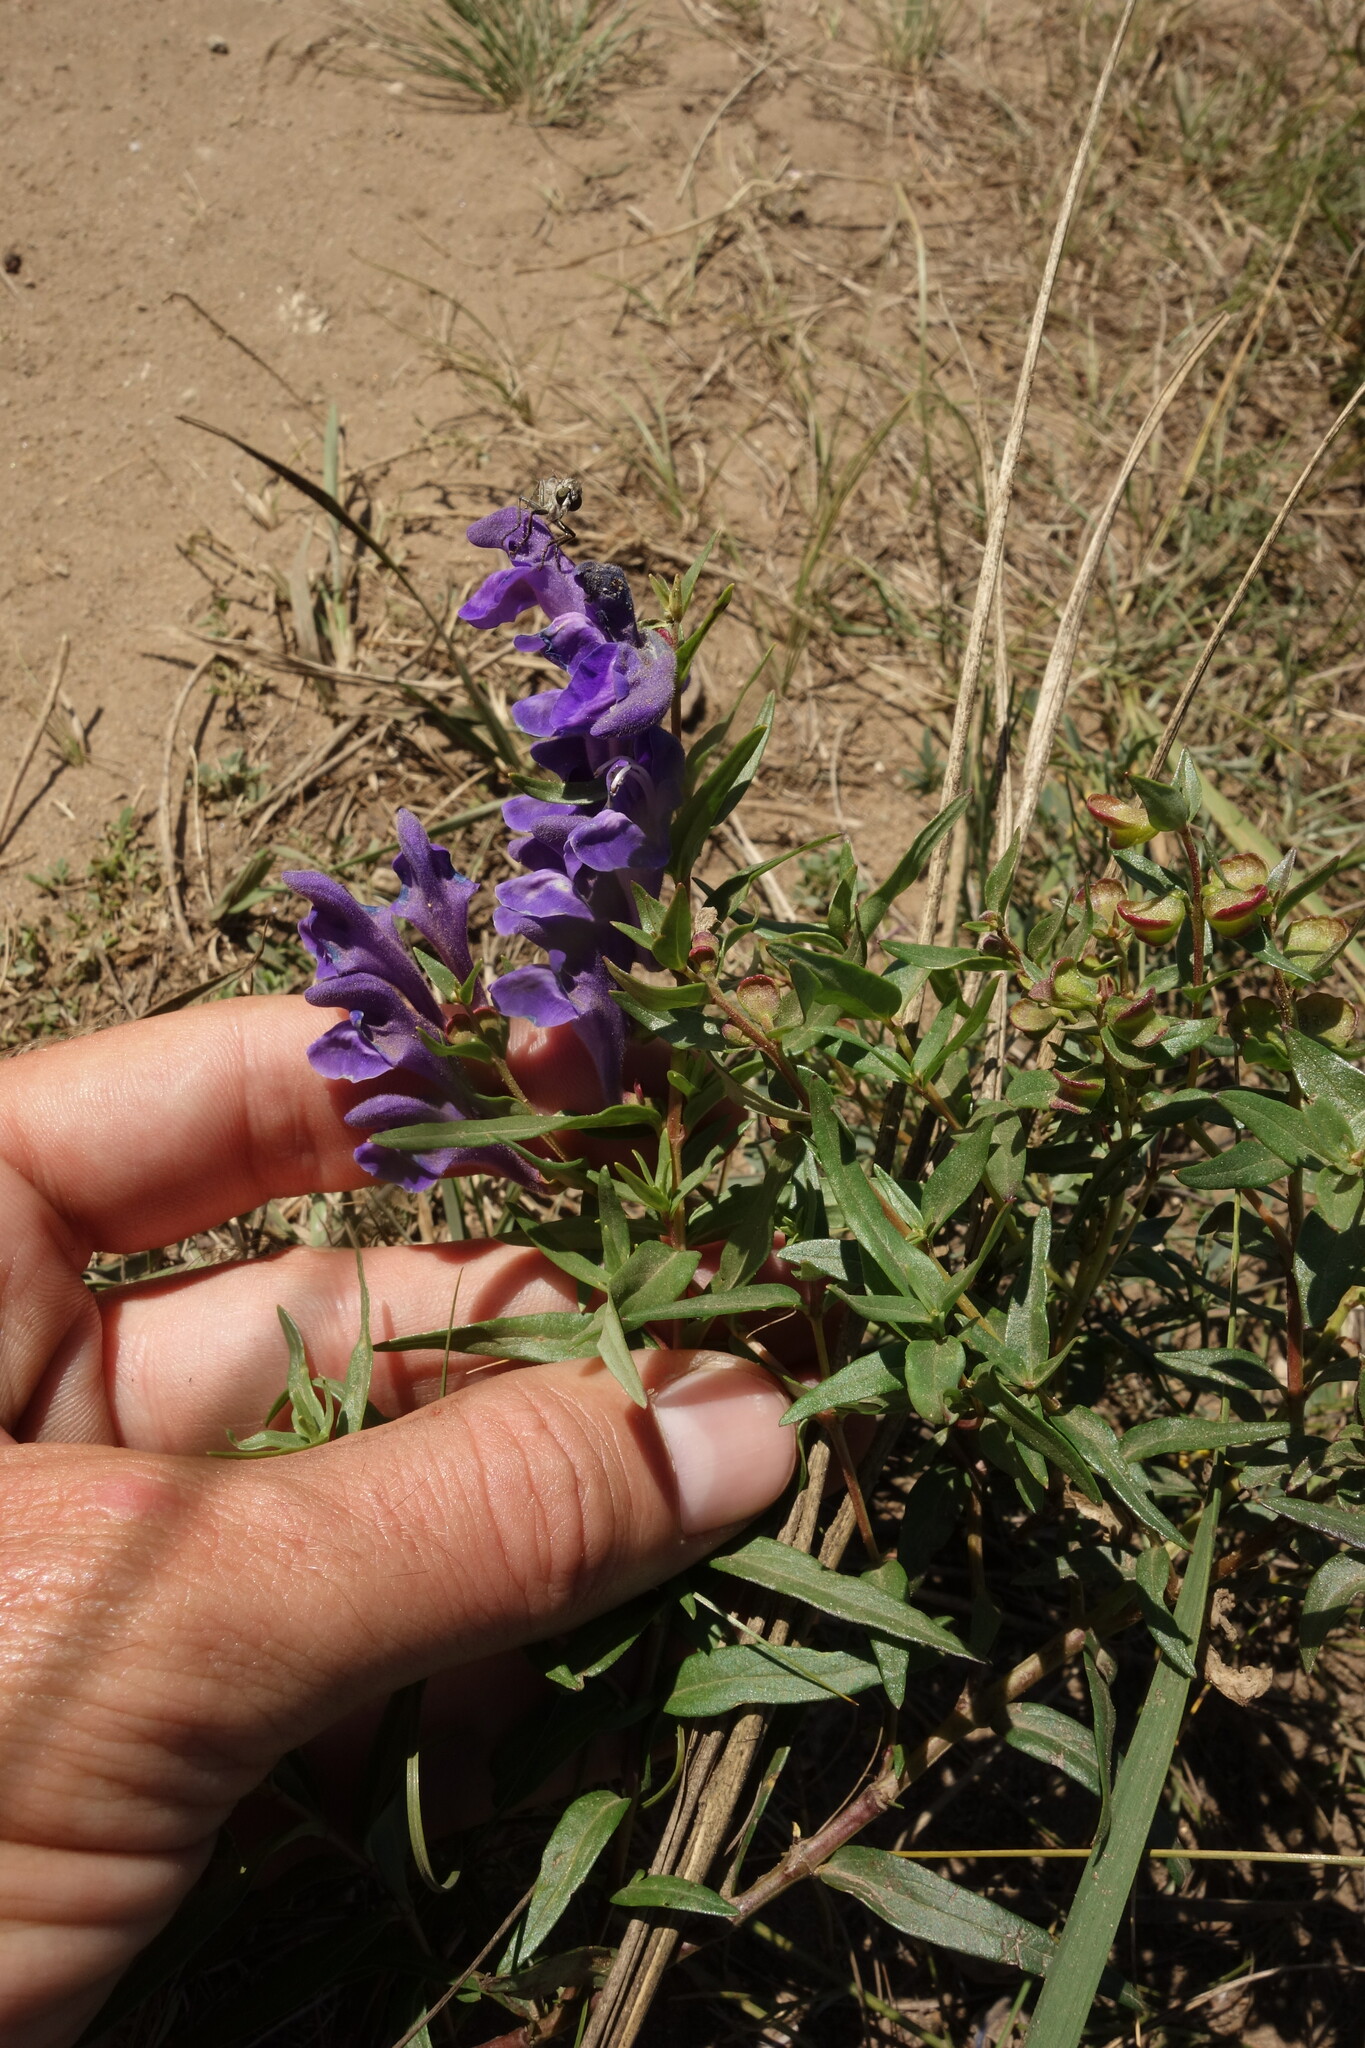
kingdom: Plantae
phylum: Tracheophyta
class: Magnoliopsida
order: Lamiales
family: Lamiaceae
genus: Scutellaria
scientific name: Scutellaria baicalensis
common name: Baikal skullcap
